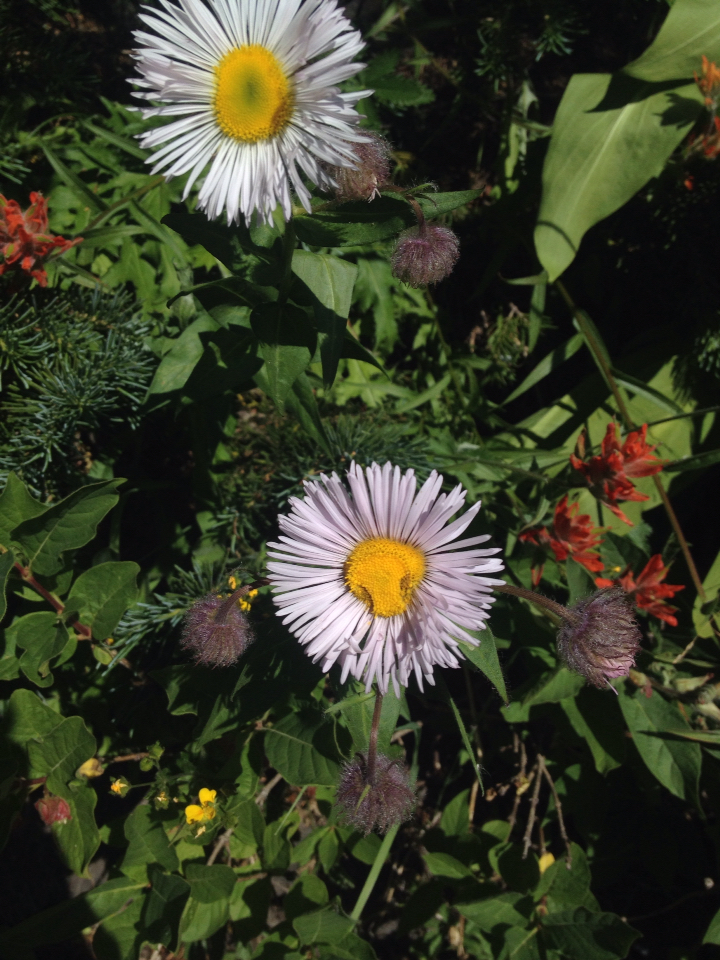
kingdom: Plantae
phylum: Tracheophyta
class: Magnoliopsida
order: Asterales
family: Asteraceae
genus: Erigeron
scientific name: Erigeron elatior
